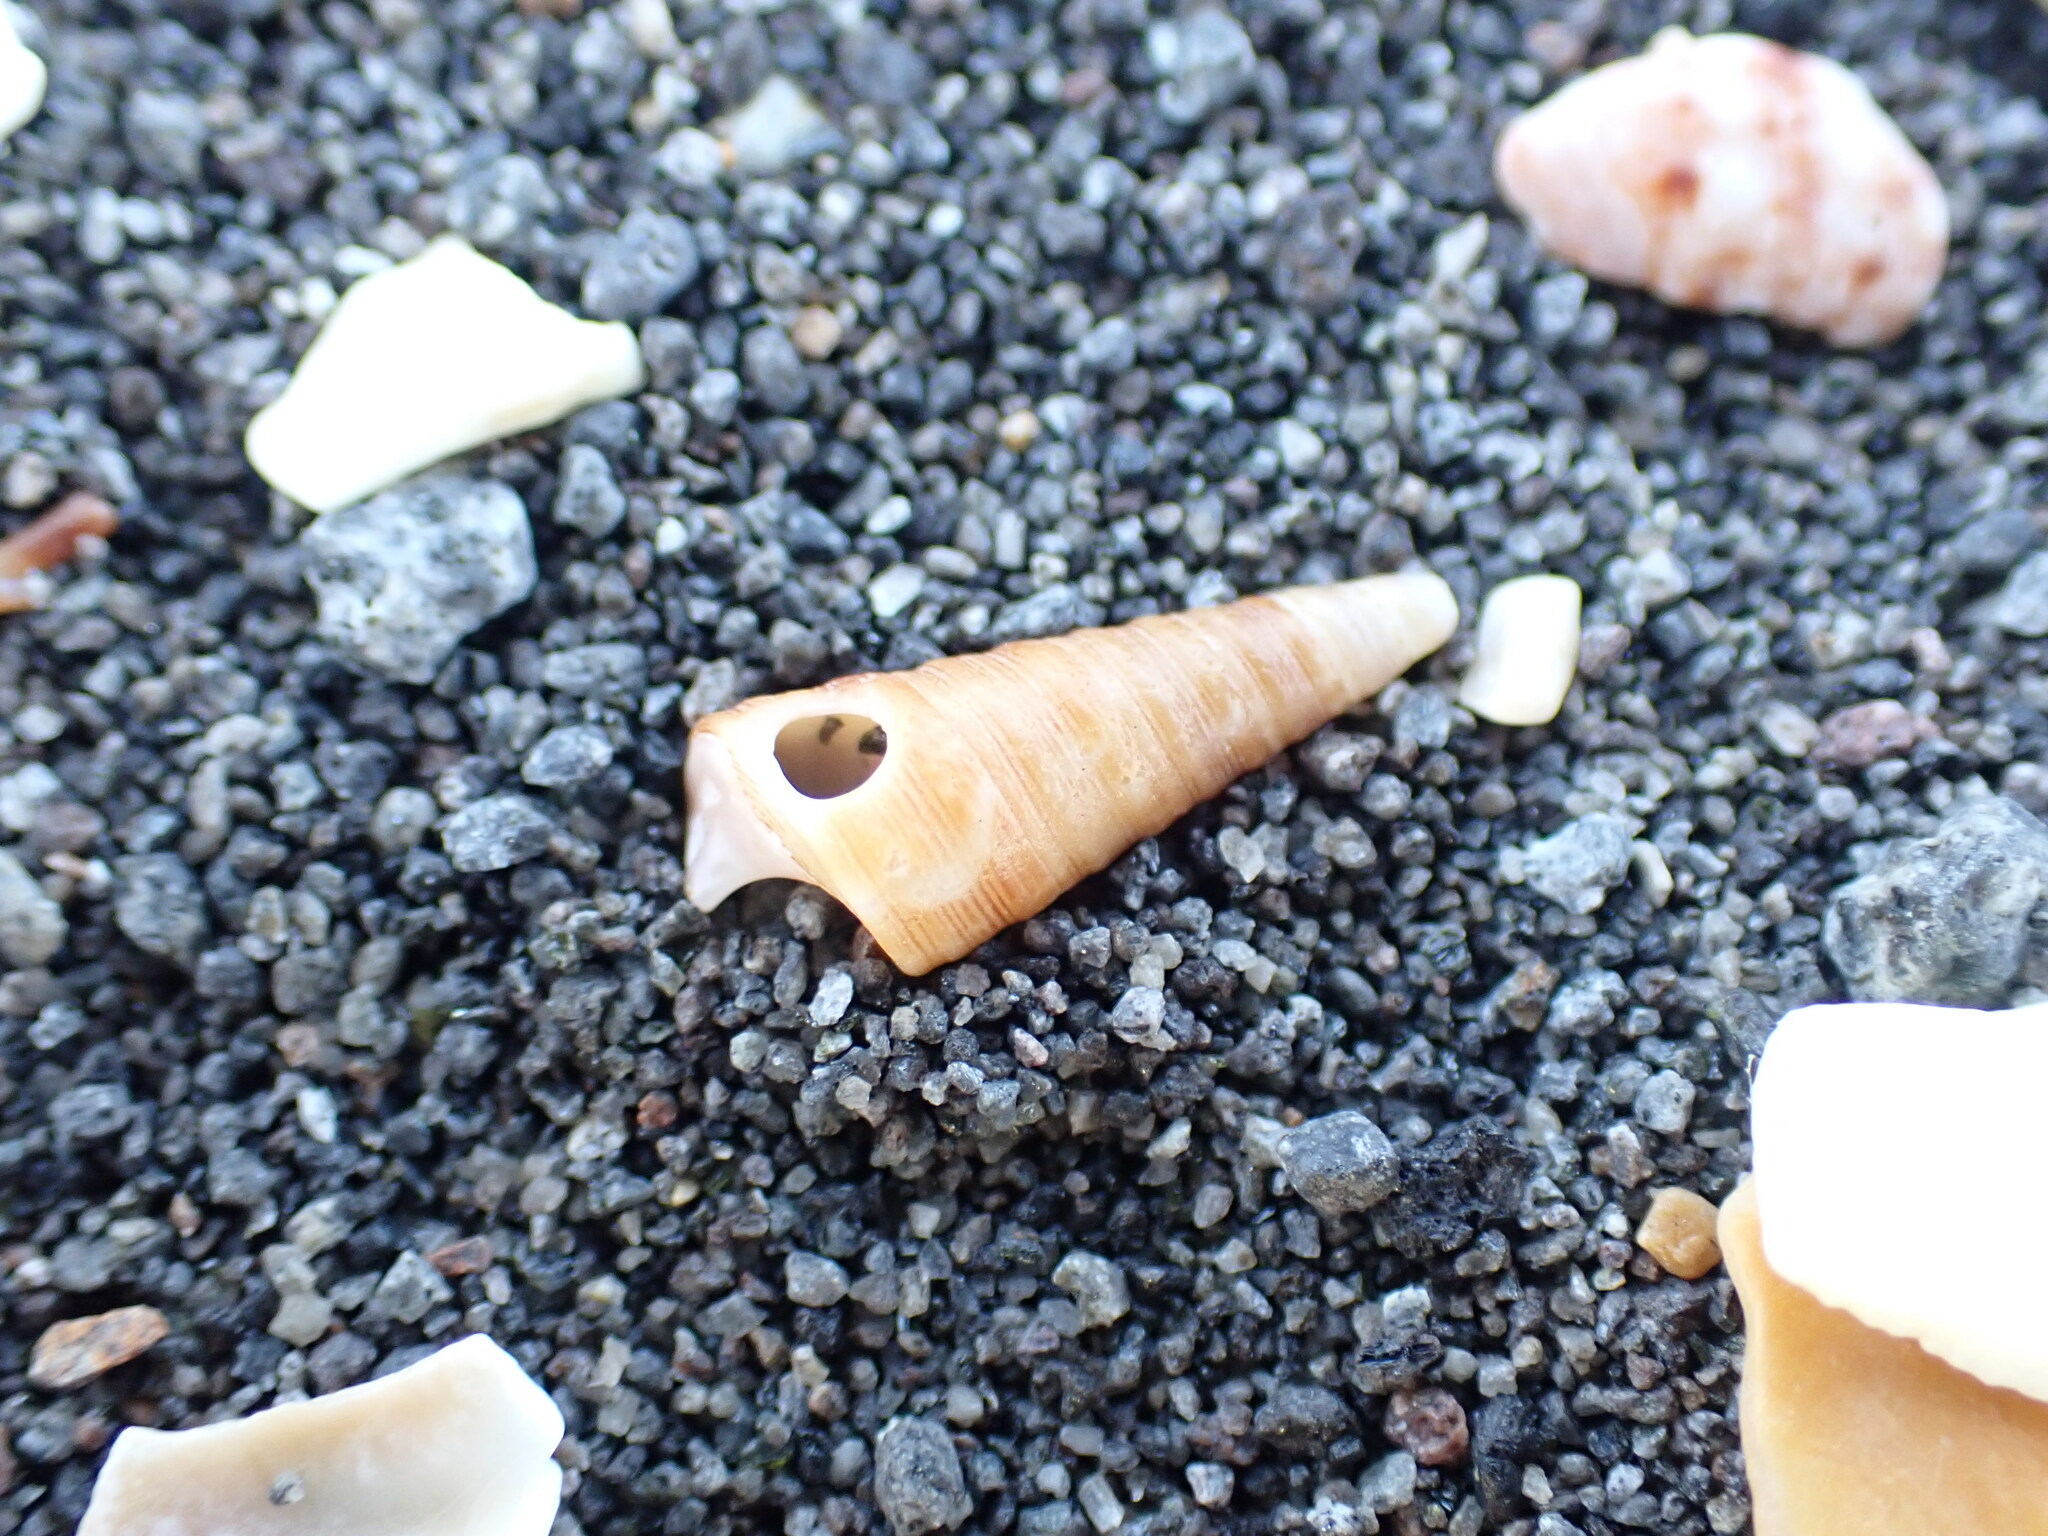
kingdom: Animalia
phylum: Mollusca
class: Gastropoda
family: Turritellidae
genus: Maoricolpus
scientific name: Maoricolpus roseus
